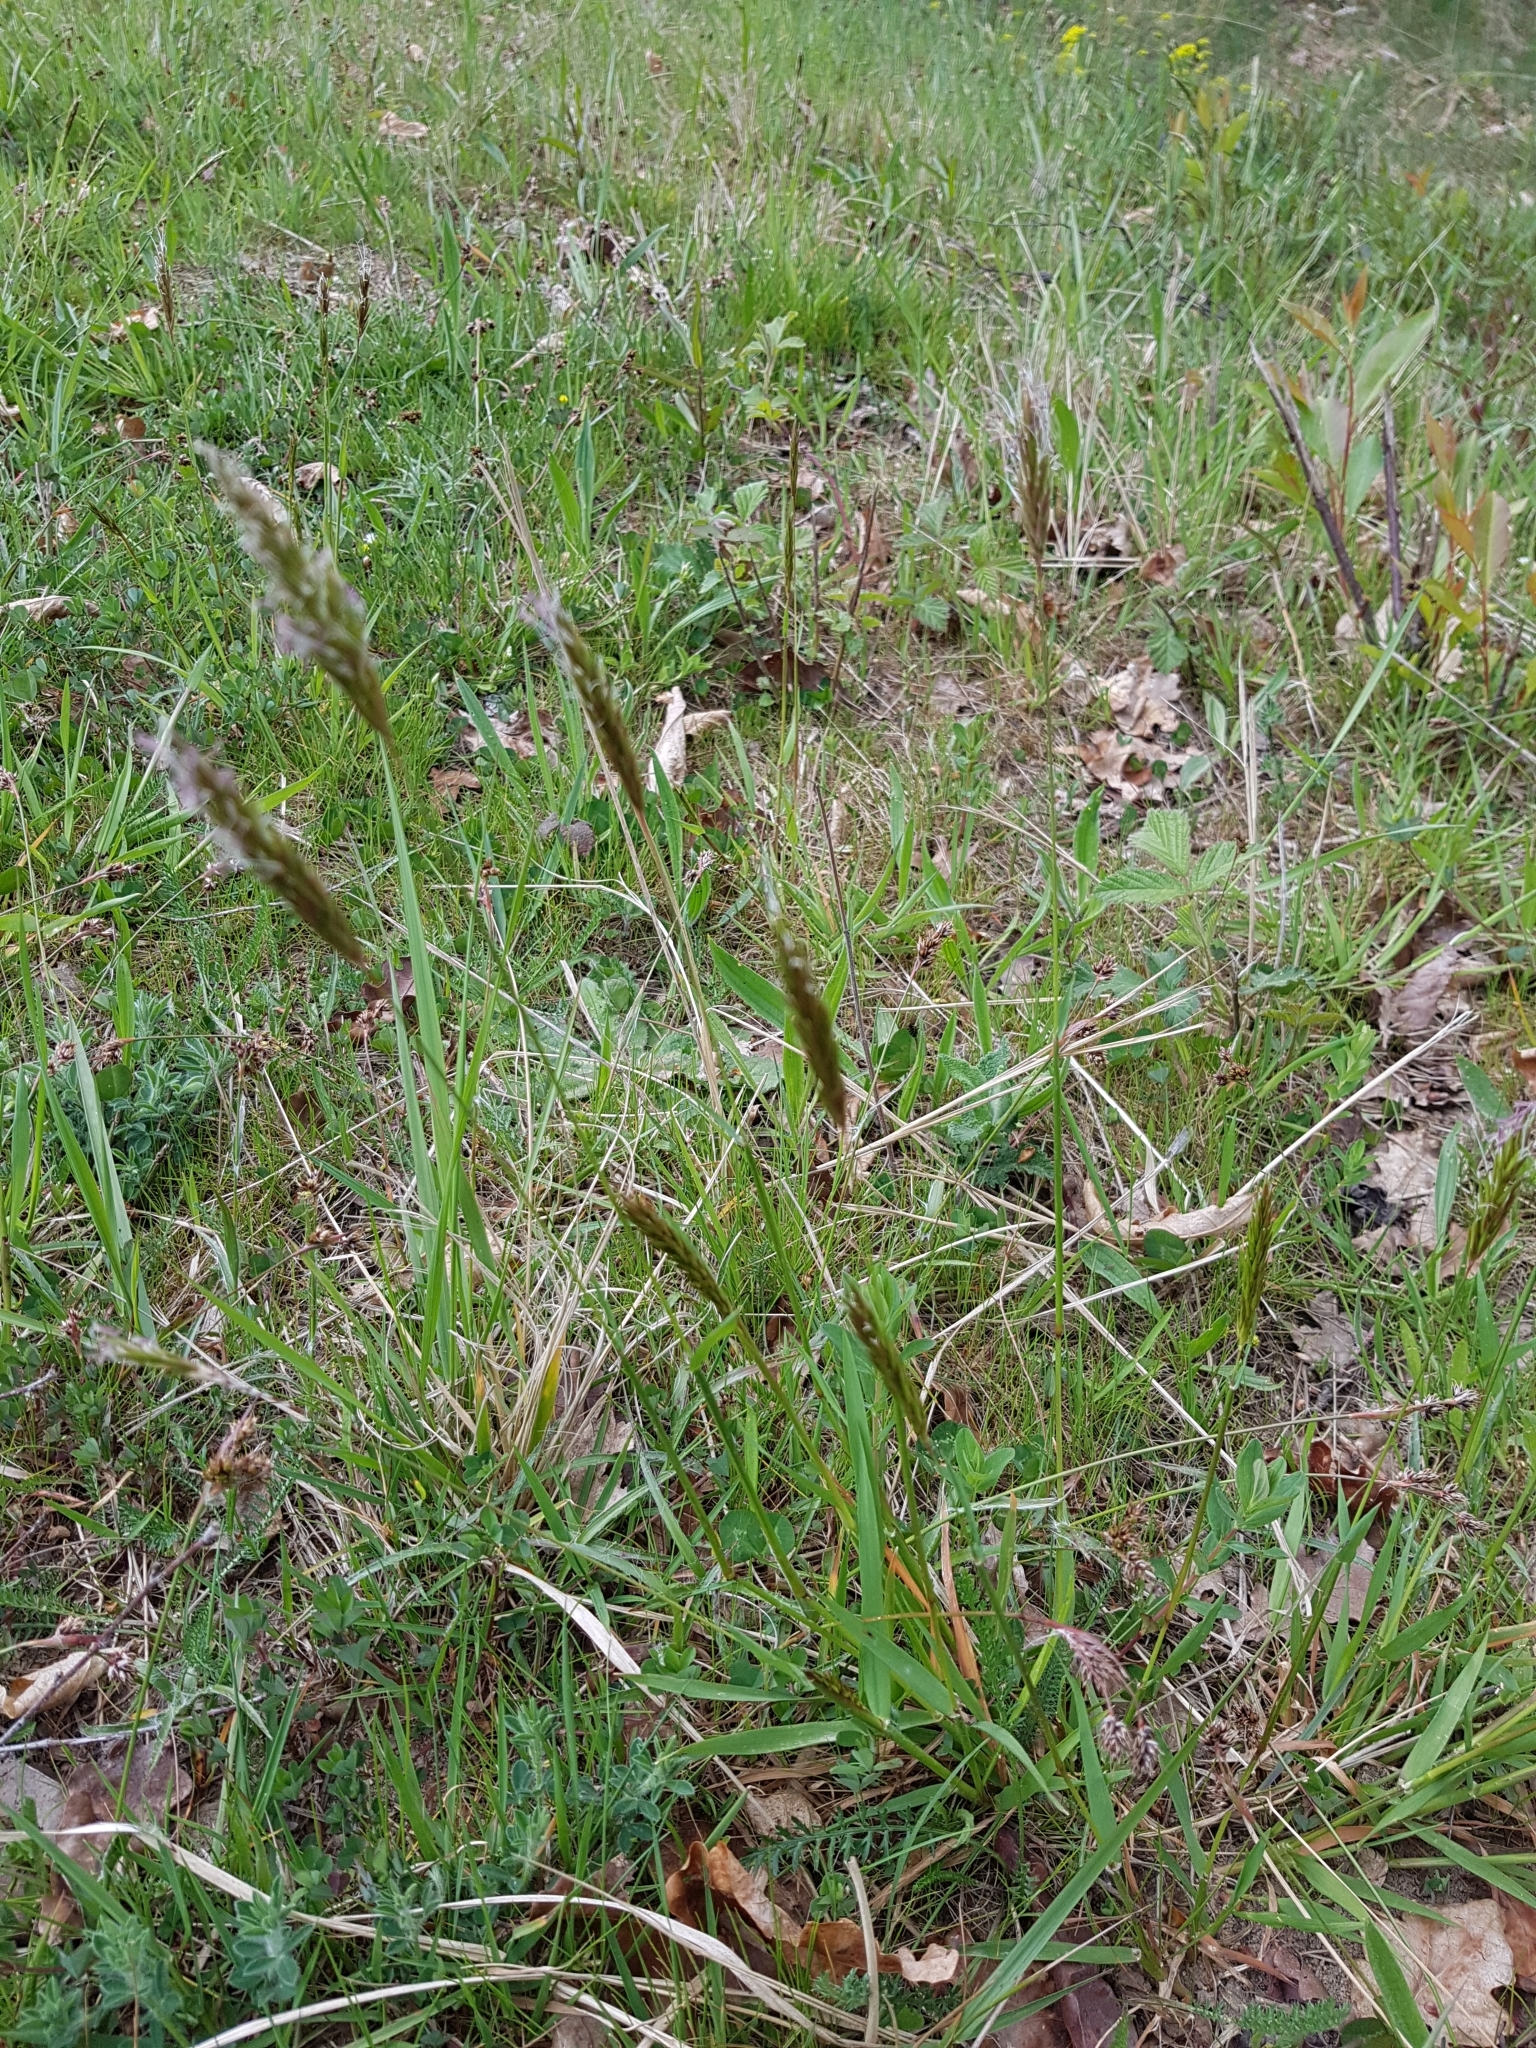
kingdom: Plantae
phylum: Tracheophyta
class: Liliopsida
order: Poales
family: Poaceae
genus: Anthoxanthum
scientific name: Anthoxanthum odoratum
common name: Sweet vernalgrass
